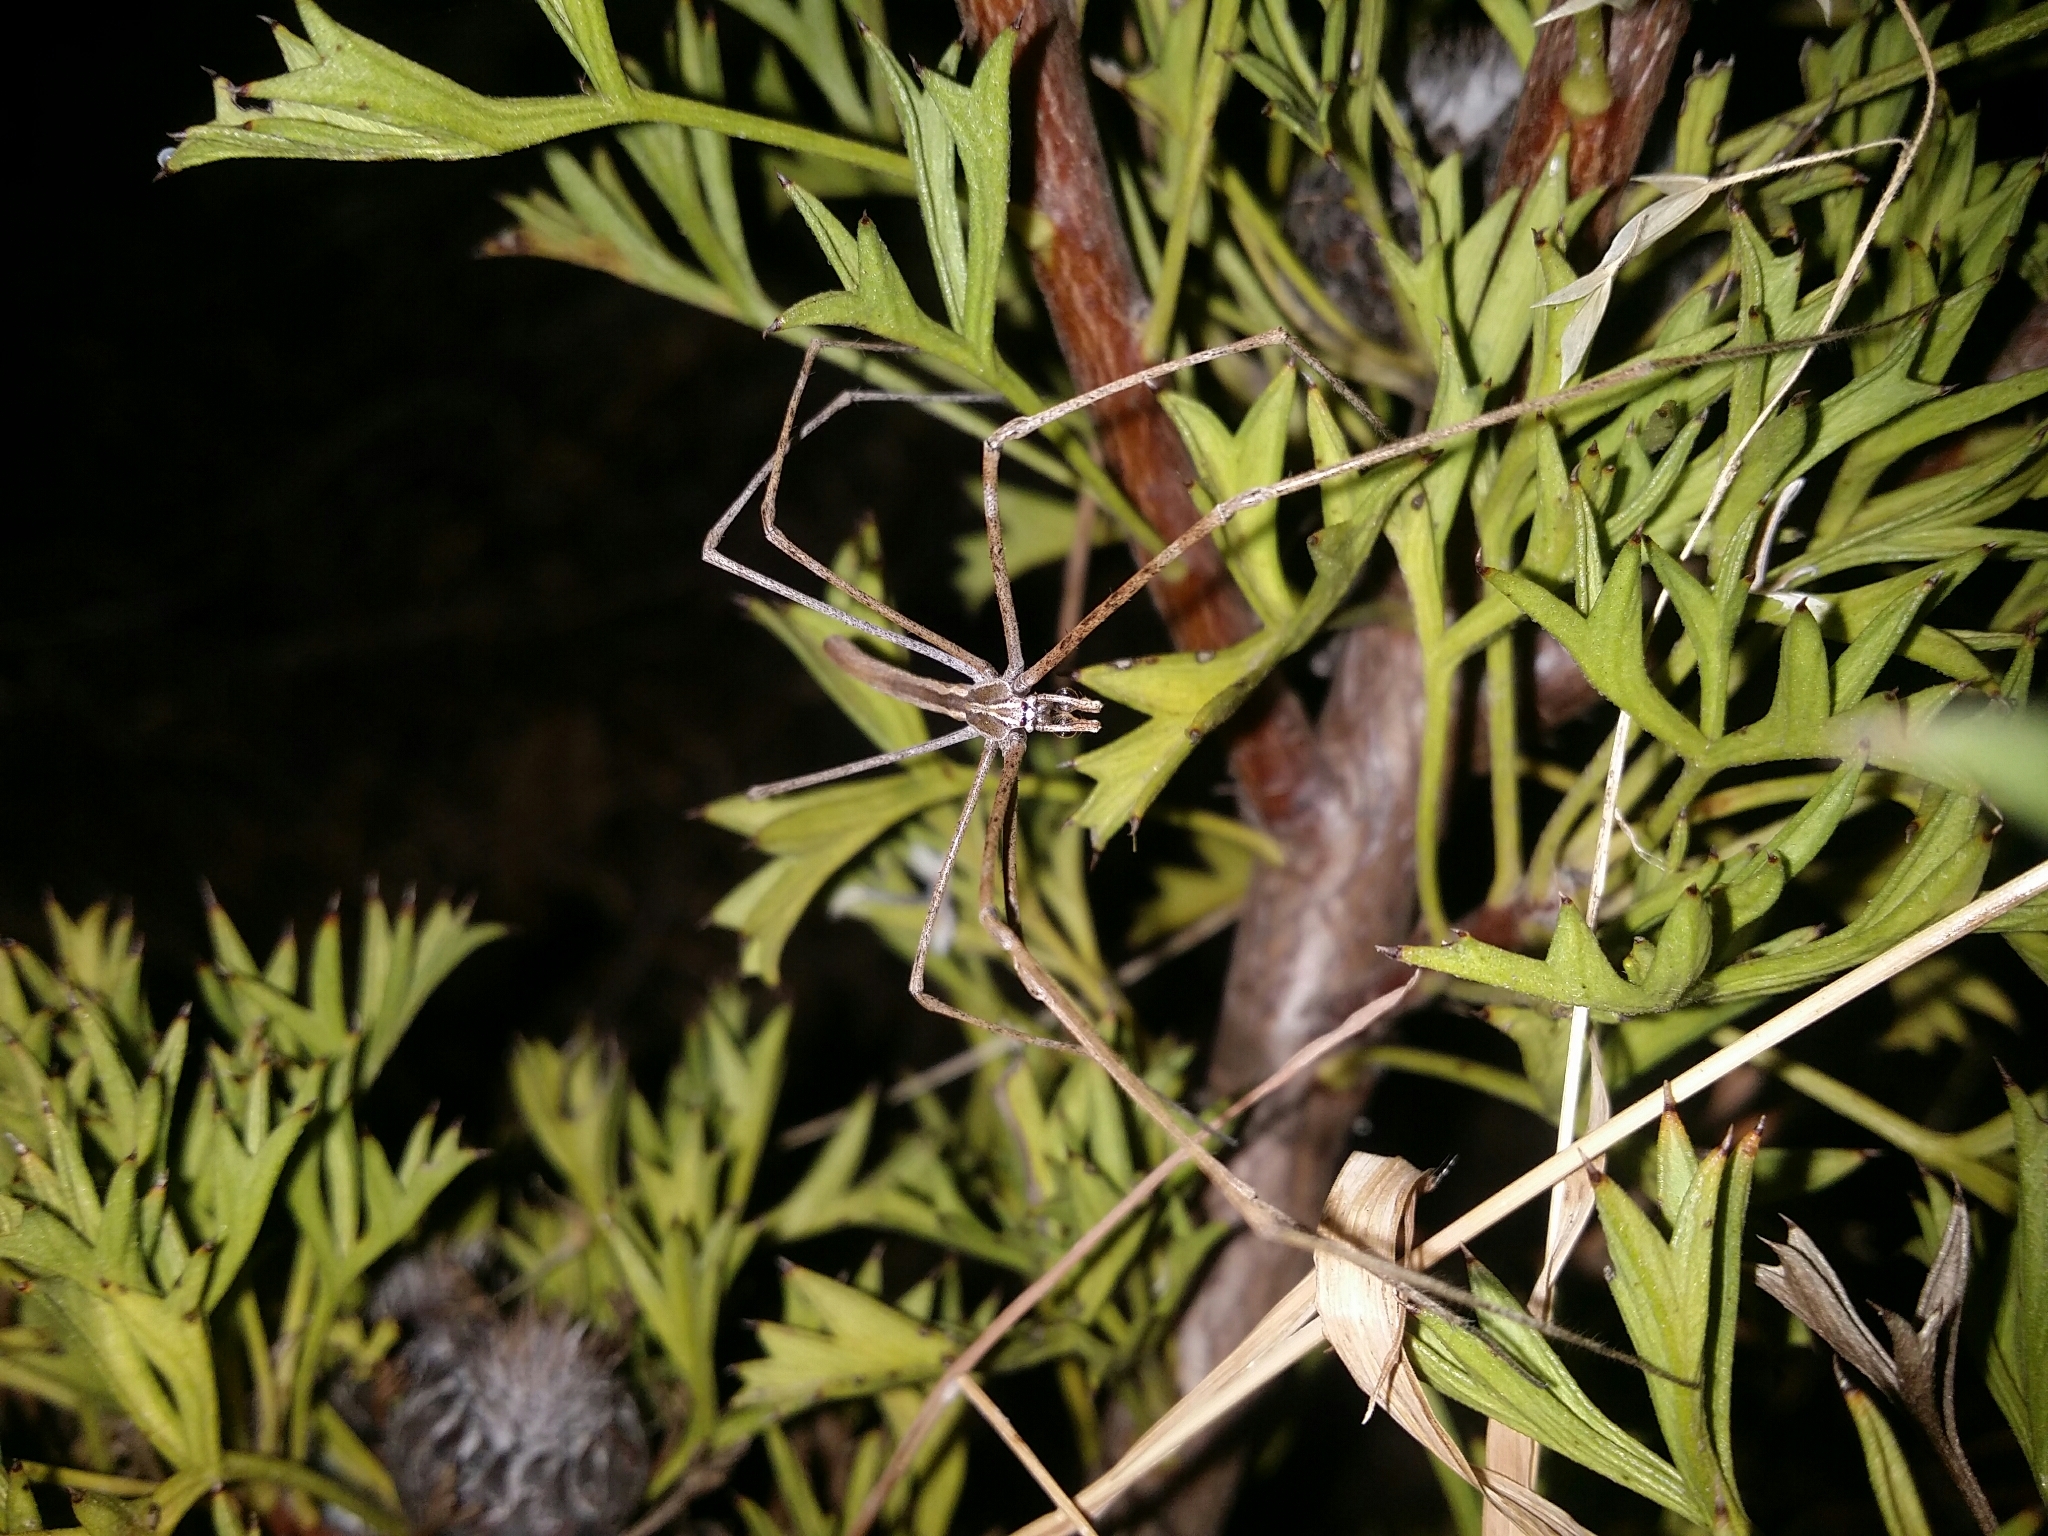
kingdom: Animalia
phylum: Arthropoda
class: Arachnida
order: Araneae
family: Deinopidae
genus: Deinopis
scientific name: Deinopis subrufa
